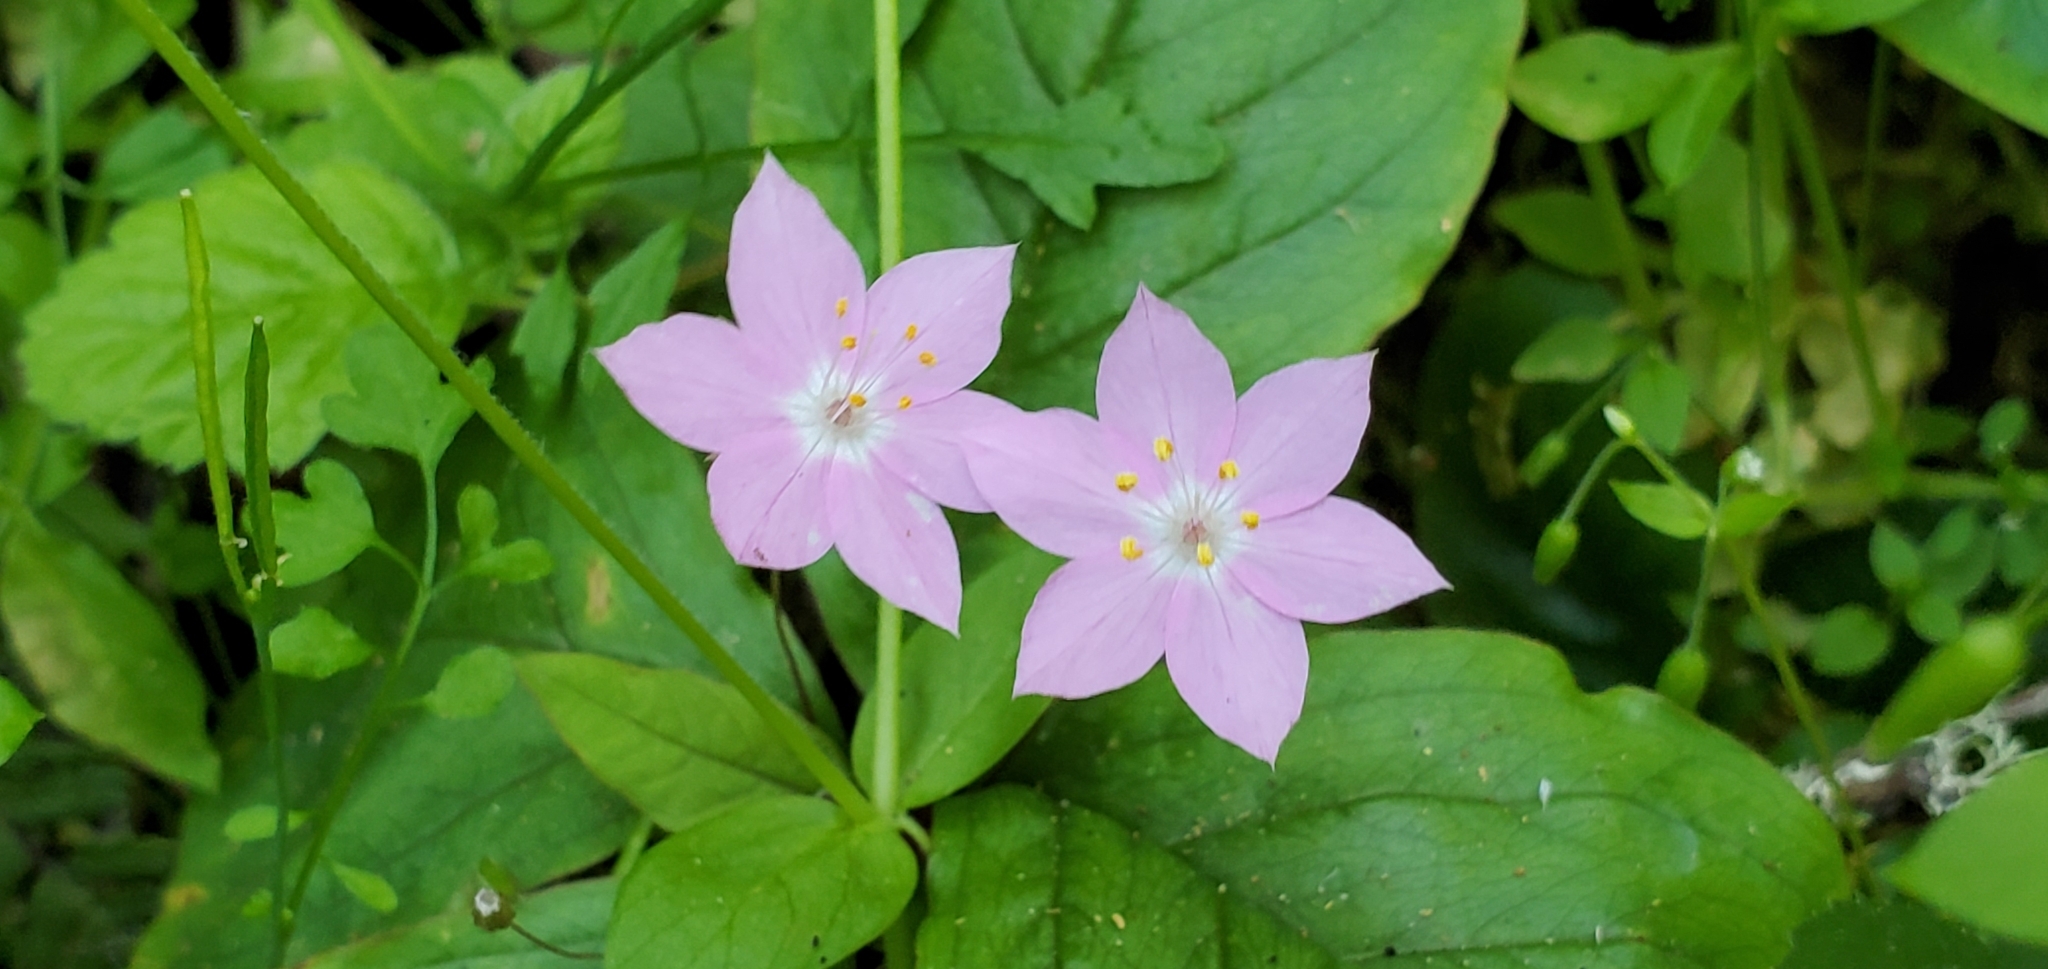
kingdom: Plantae
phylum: Tracheophyta
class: Magnoliopsida
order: Ericales
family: Primulaceae
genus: Lysimachia
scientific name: Lysimachia latifolia
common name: Pacific starflower
